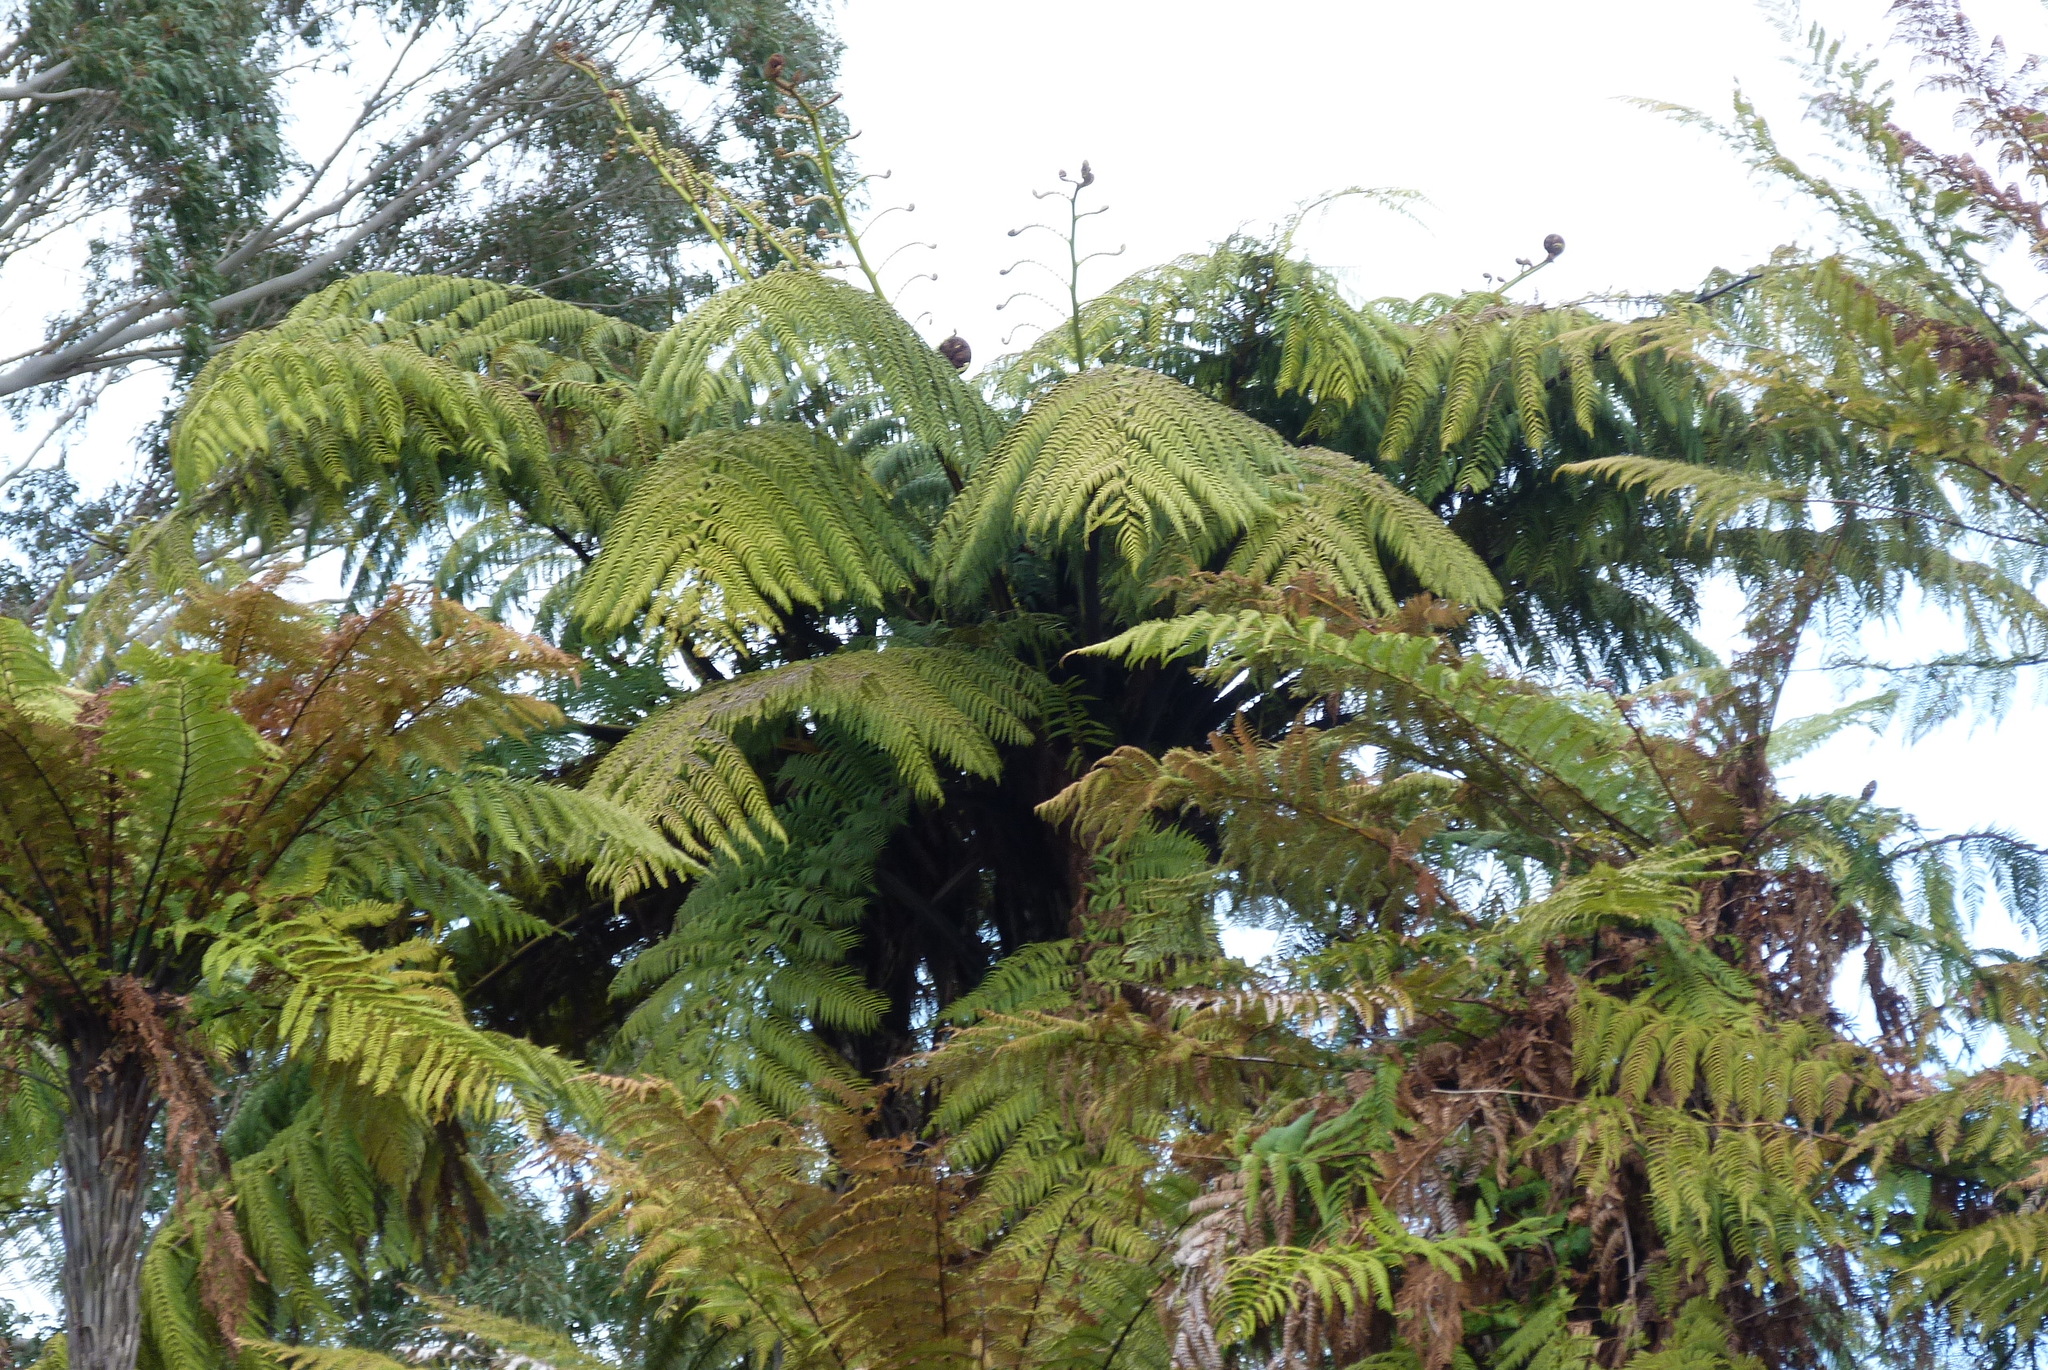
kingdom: Plantae
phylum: Tracheophyta
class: Polypodiopsida
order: Cyatheales
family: Cyatheaceae
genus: Sphaeropteris
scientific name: Sphaeropteris medullaris
